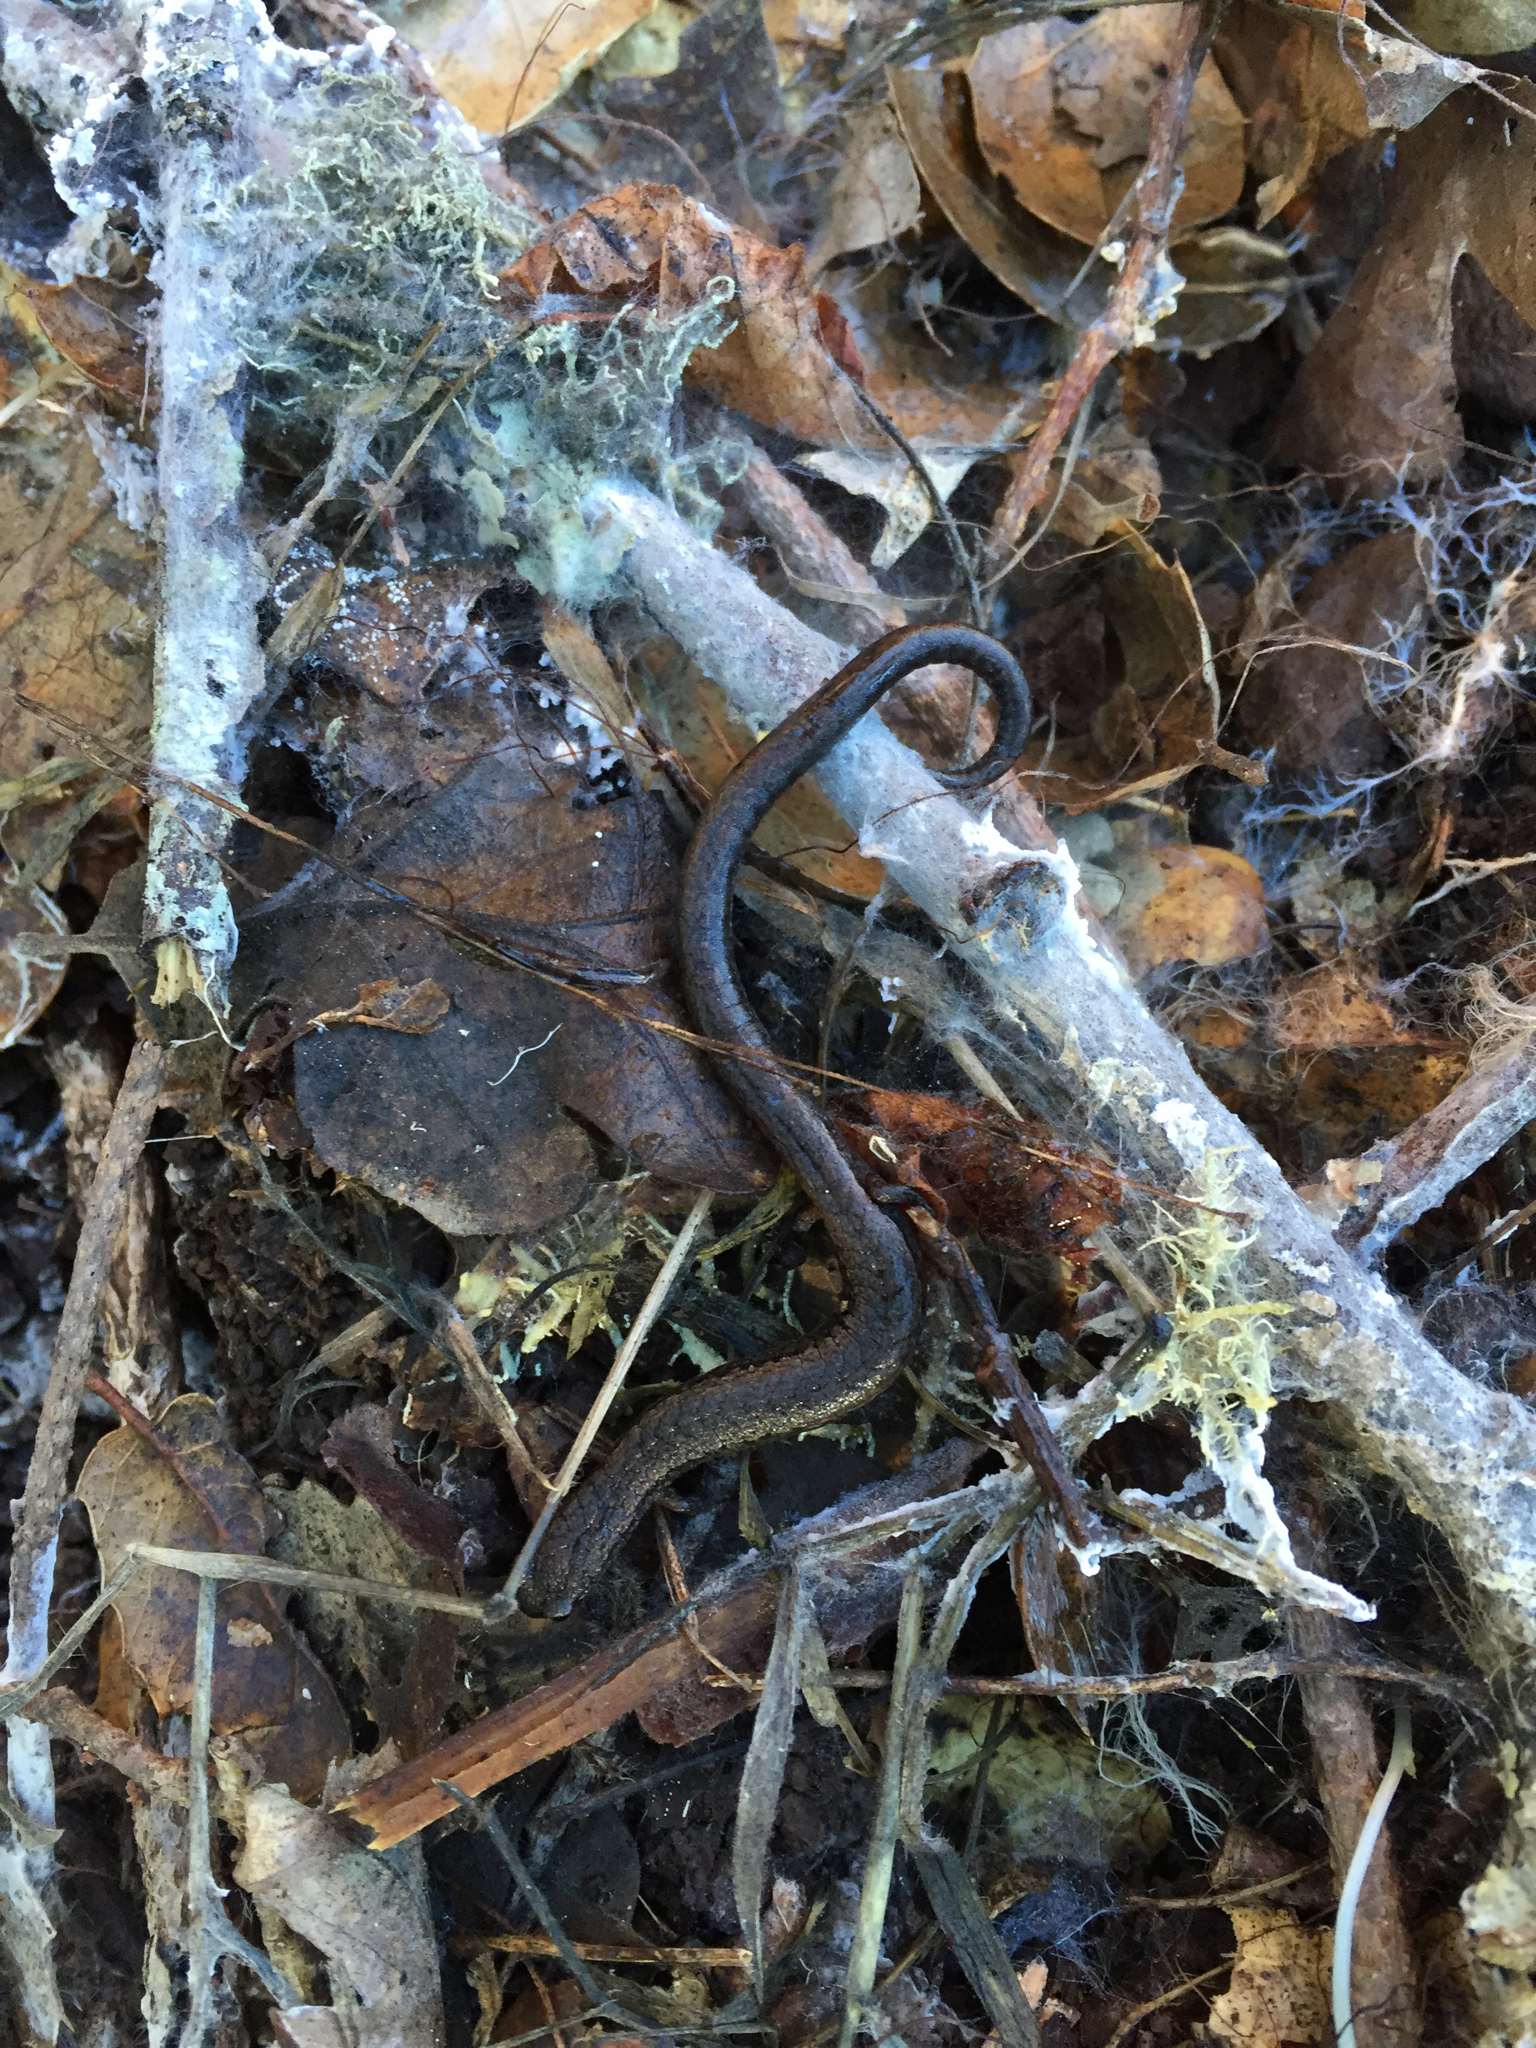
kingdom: Animalia
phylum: Chordata
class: Amphibia
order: Caudata
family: Plethodontidae
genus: Batrachoseps
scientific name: Batrachoseps attenuatus
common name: California slender salamander
